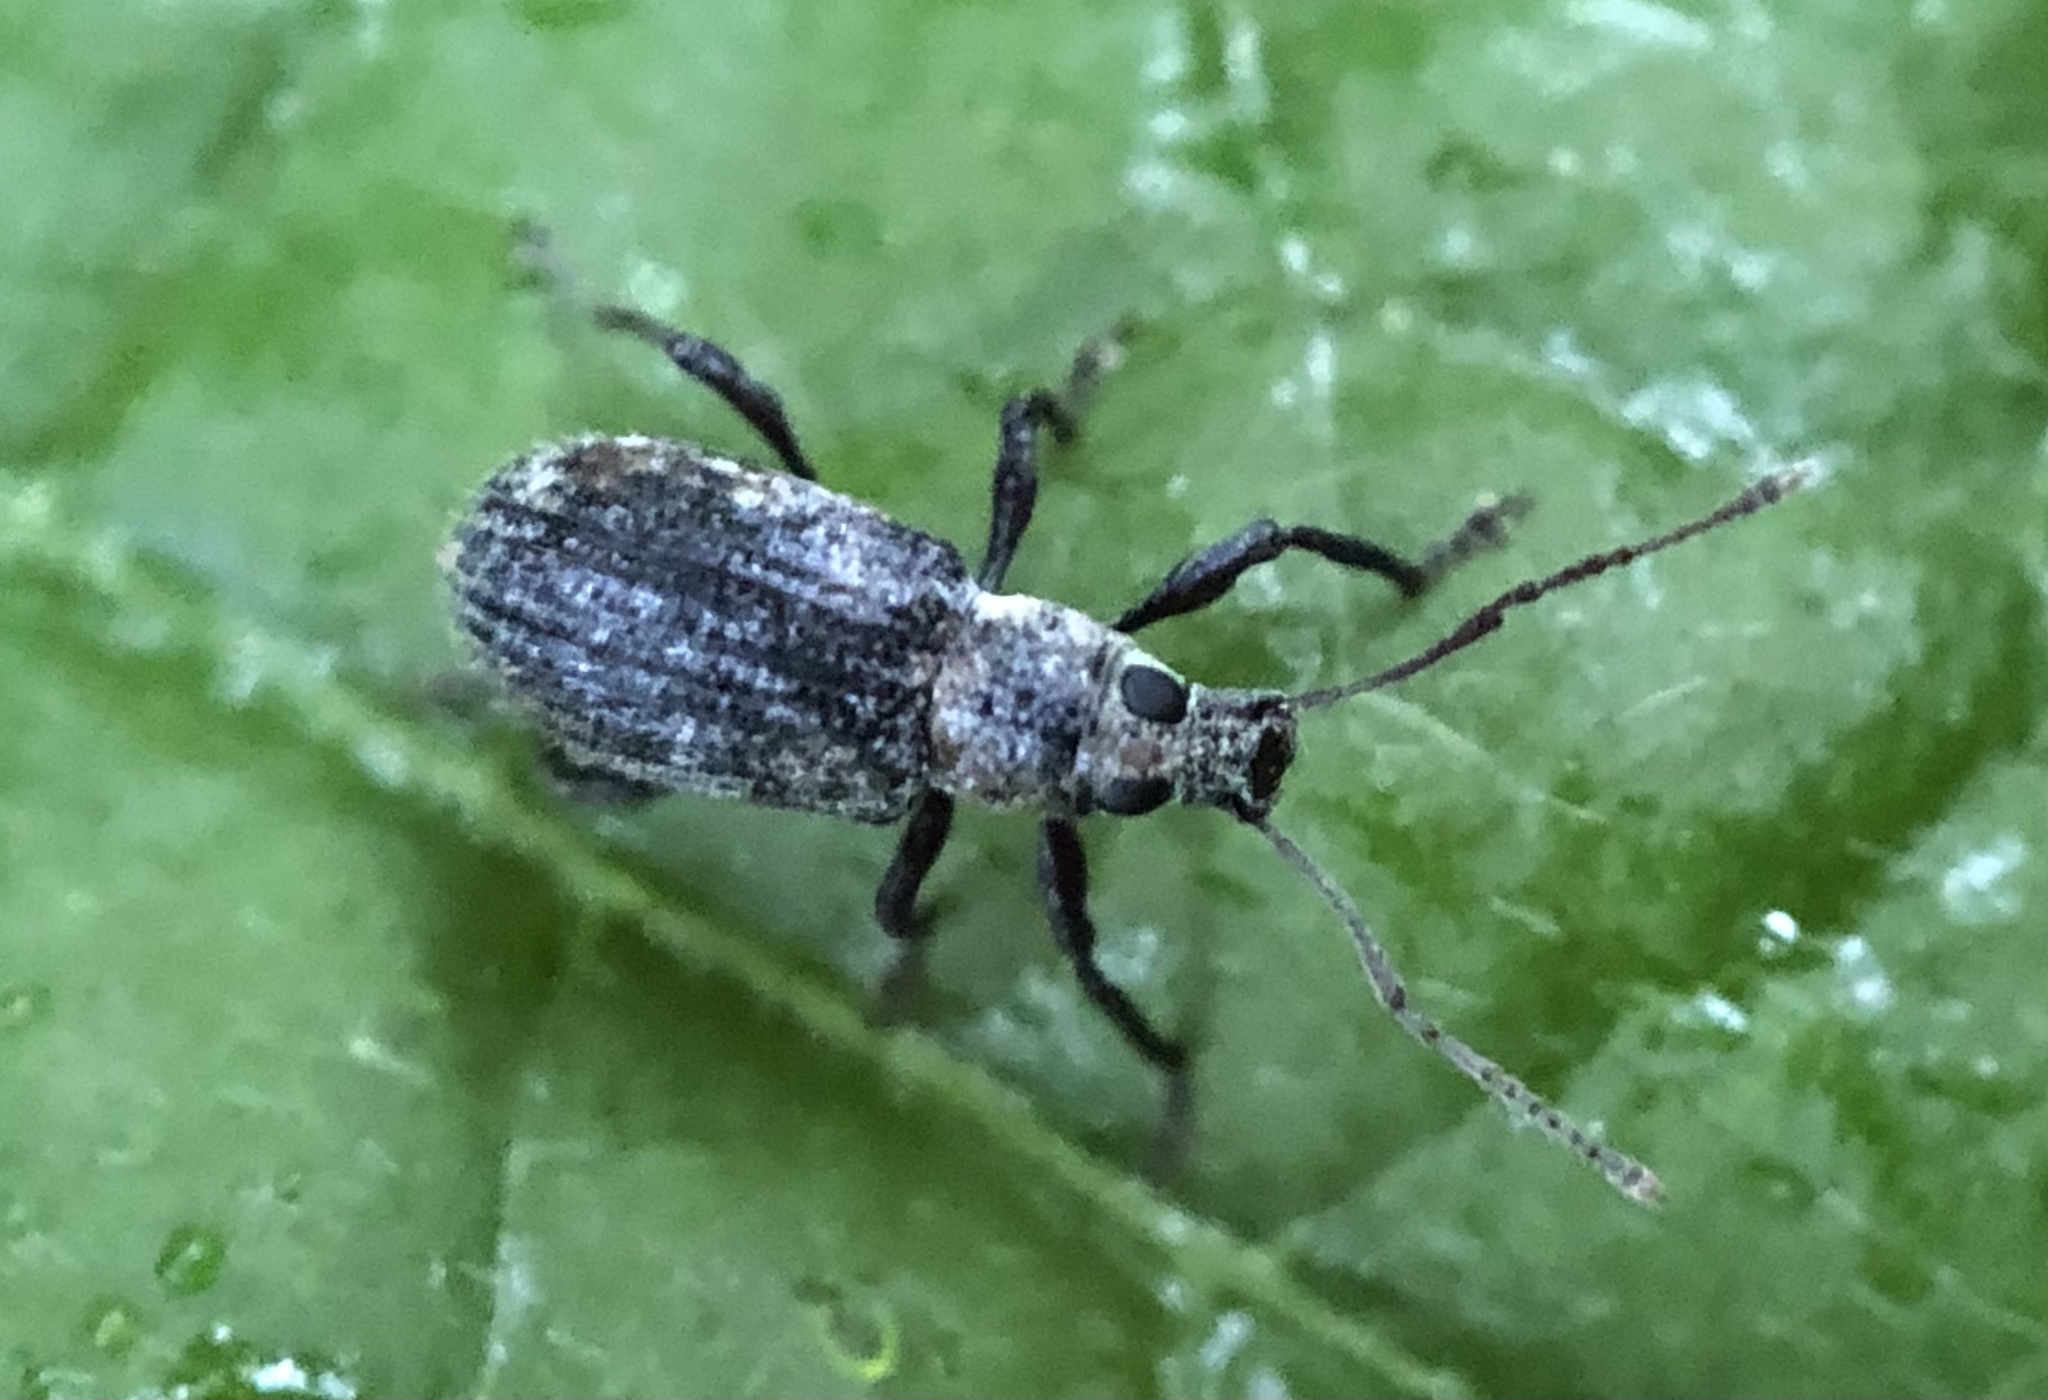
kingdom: Animalia
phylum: Arthropoda
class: Insecta
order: Coleoptera
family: Curculionidae
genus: Cyrtepistomus
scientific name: Cyrtepistomus castaneus
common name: Weevil
